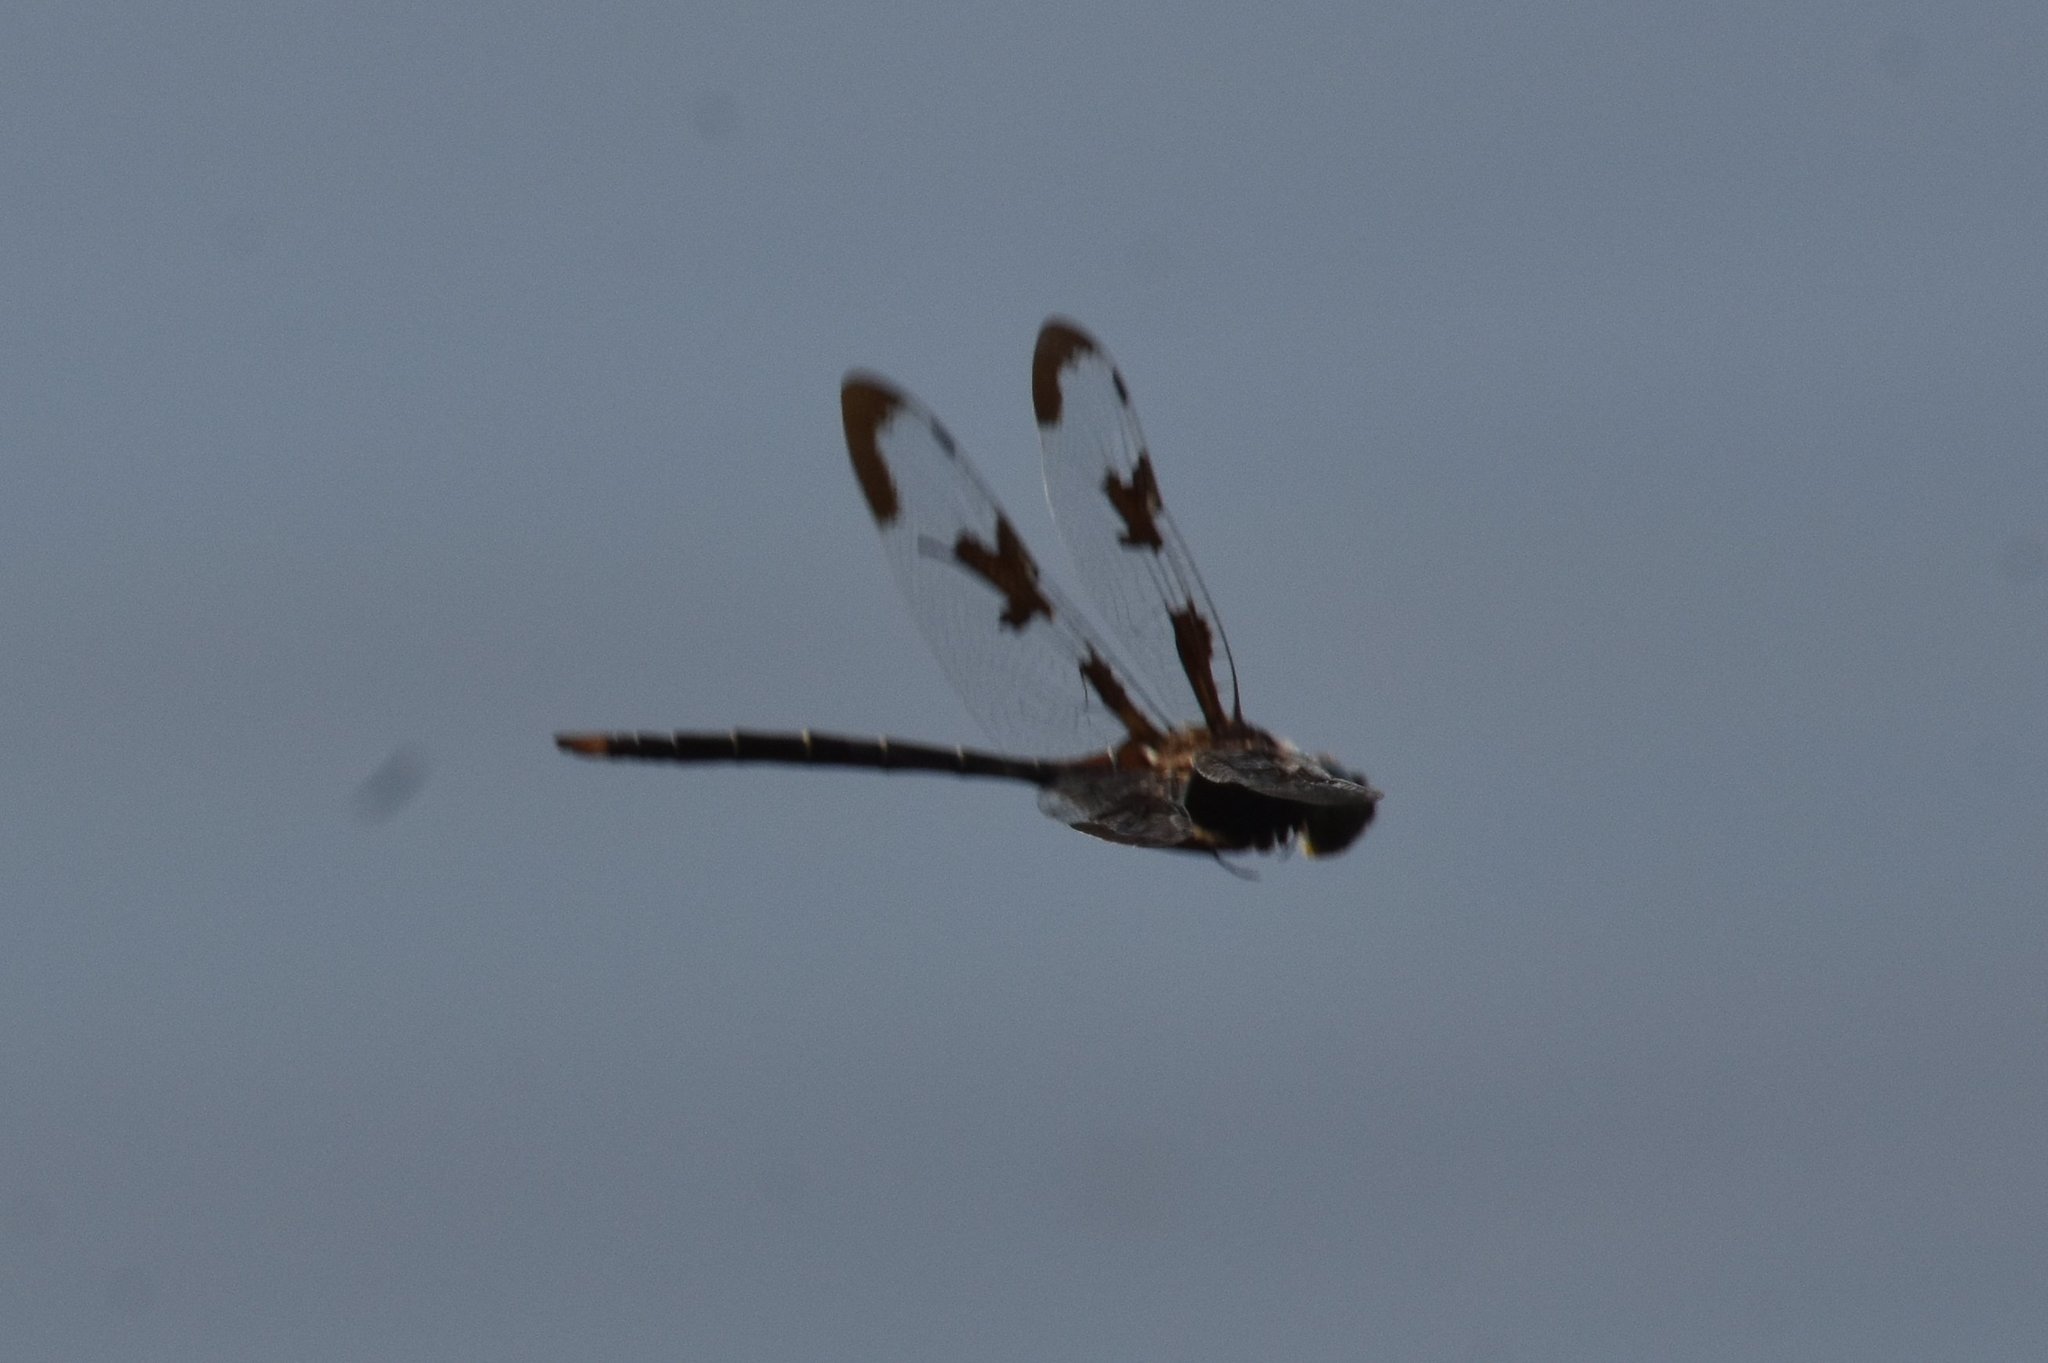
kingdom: Animalia
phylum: Arthropoda
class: Insecta
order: Odonata
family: Corduliidae
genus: Epitheca
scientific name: Epitheca princeps
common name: Prince baskettail
